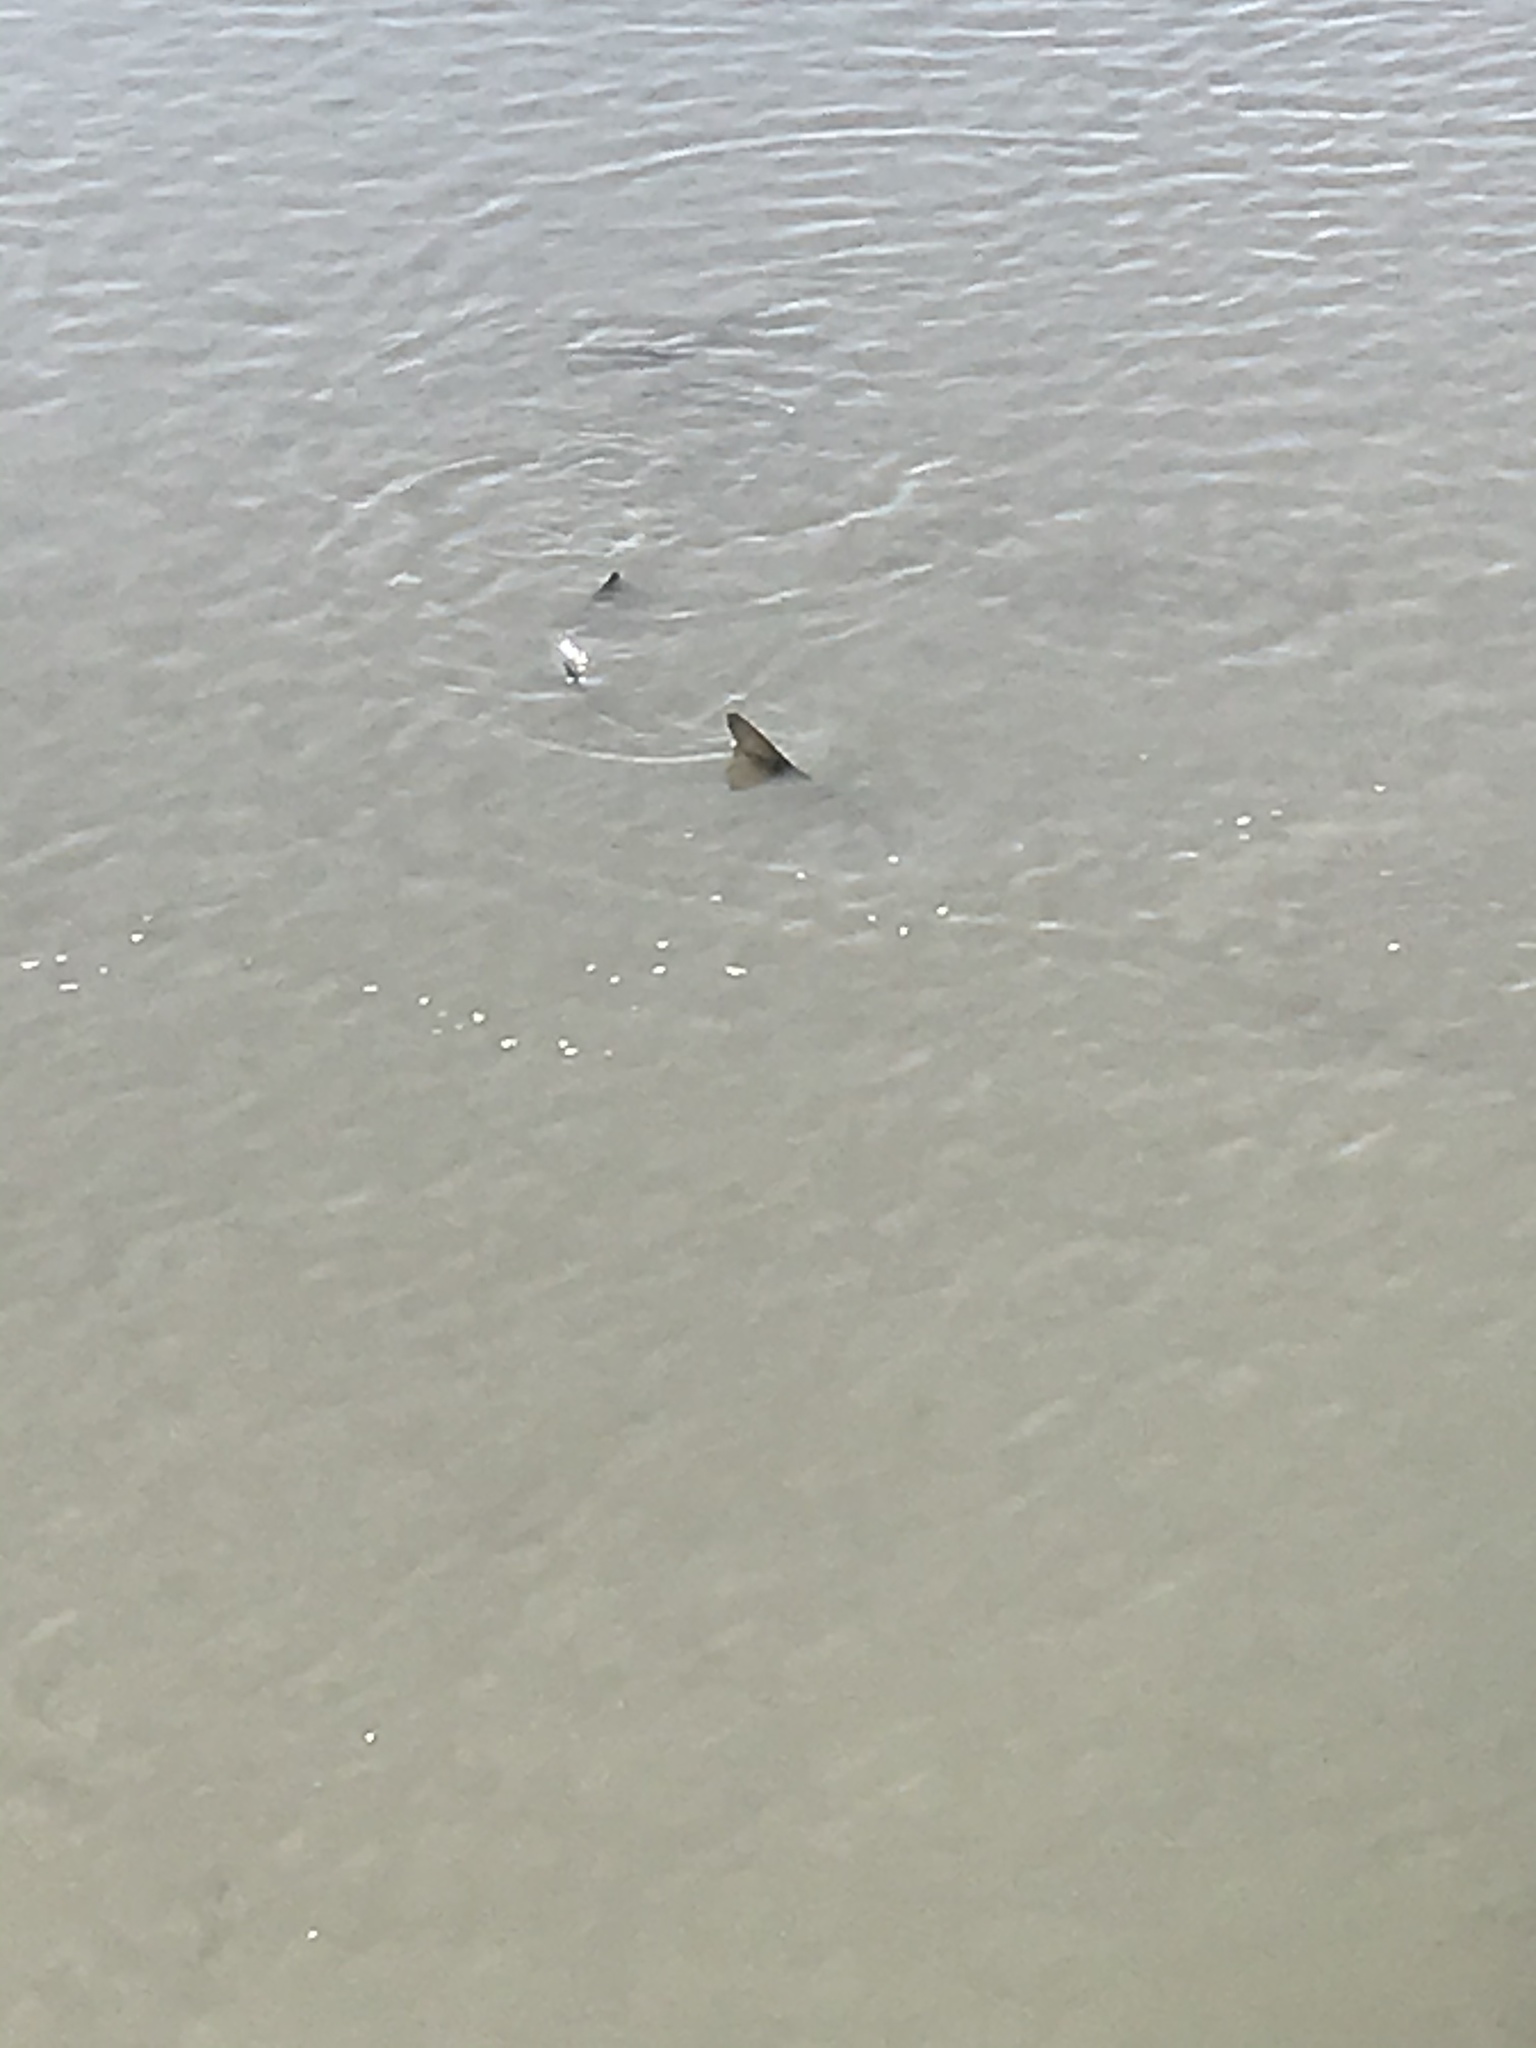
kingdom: Animalia
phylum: Chordata
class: Elasmobranchii
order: Carcharhiniformes
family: Triakidae
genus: Triakis
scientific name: Triakis semifasciata
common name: Leopard shark
